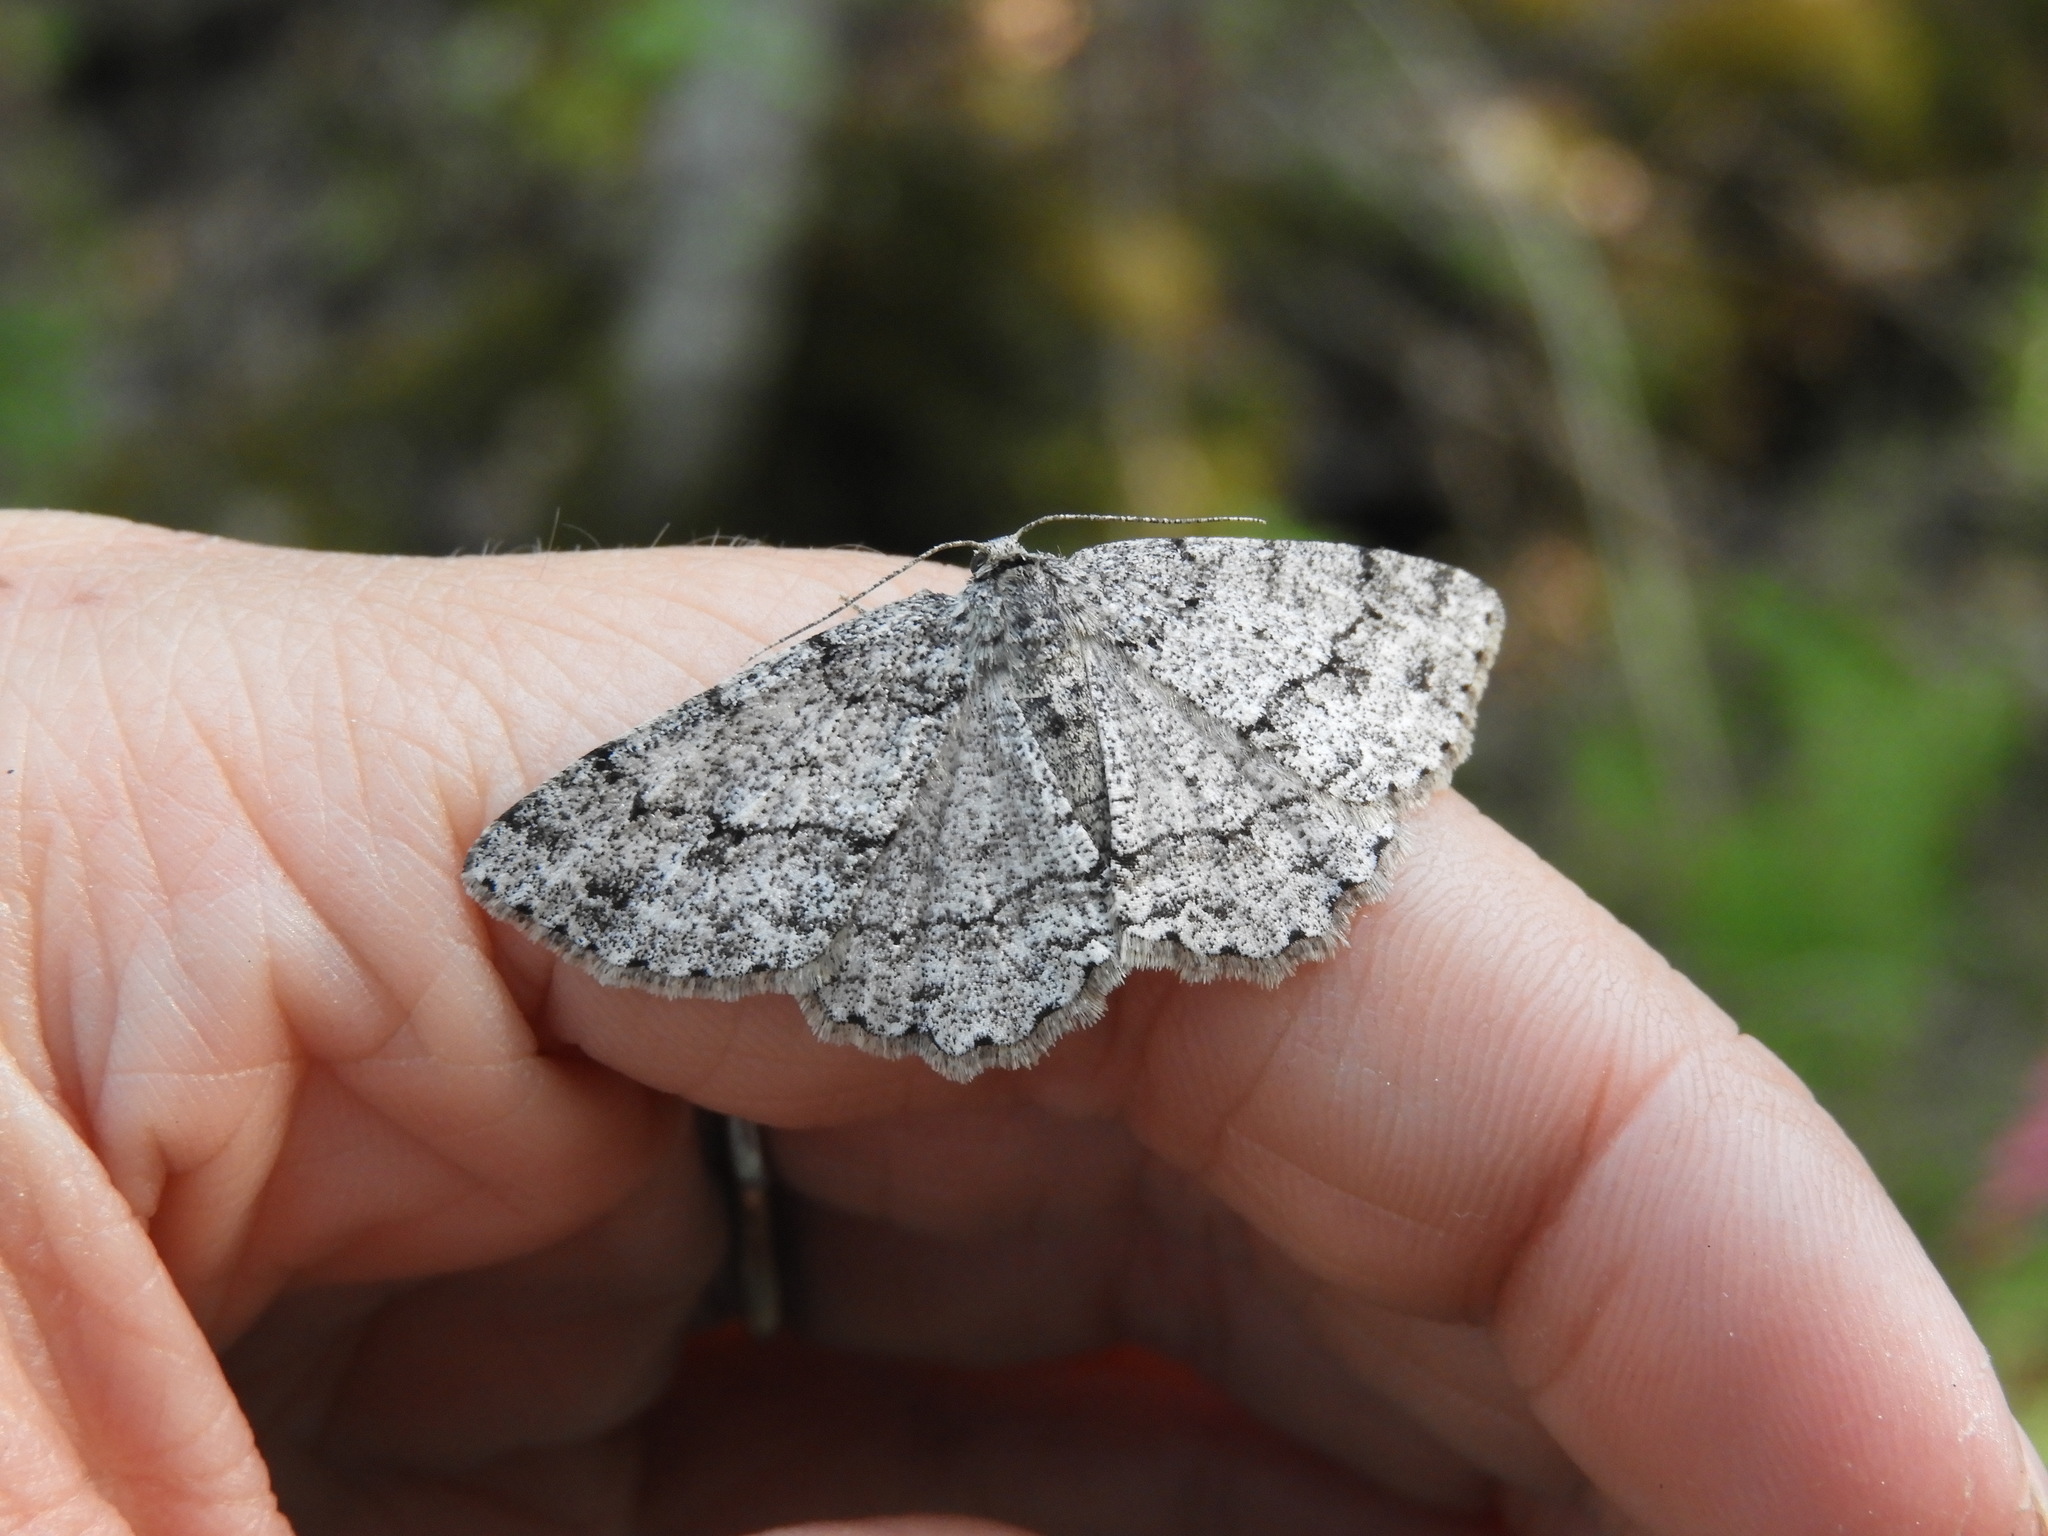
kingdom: Animalia
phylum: Arthropoda
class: Insecta
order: Lepidoptera
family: Geometridae
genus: Ectropis
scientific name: Ectropis crepuscularia
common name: Engrailed
